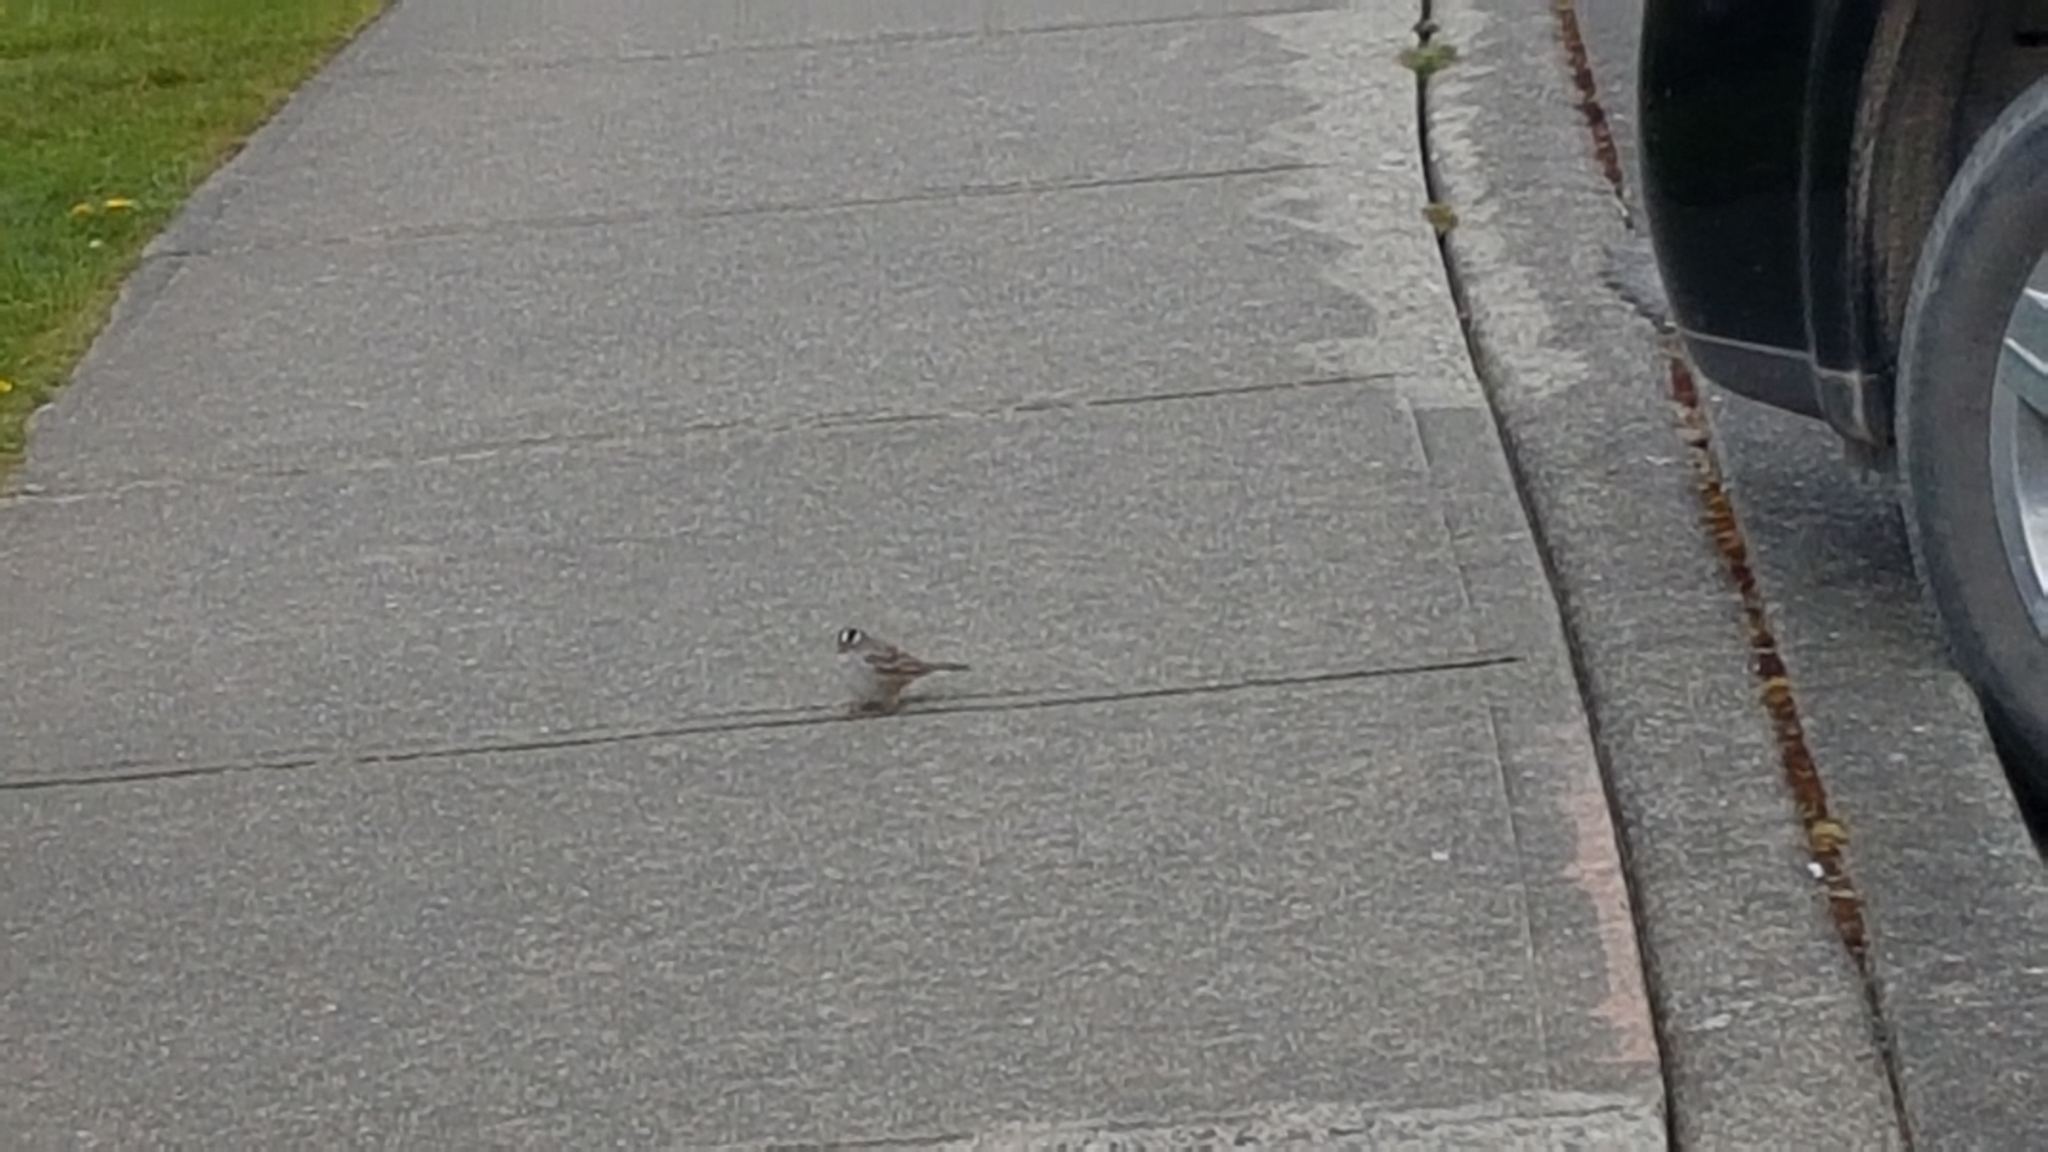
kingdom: Animalia
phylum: Chordata
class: Aves
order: Passeriformes
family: Passerellidae
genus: Zonotrichia
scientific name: Zonotrichia leucophrys
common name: White-crowned sparrow
